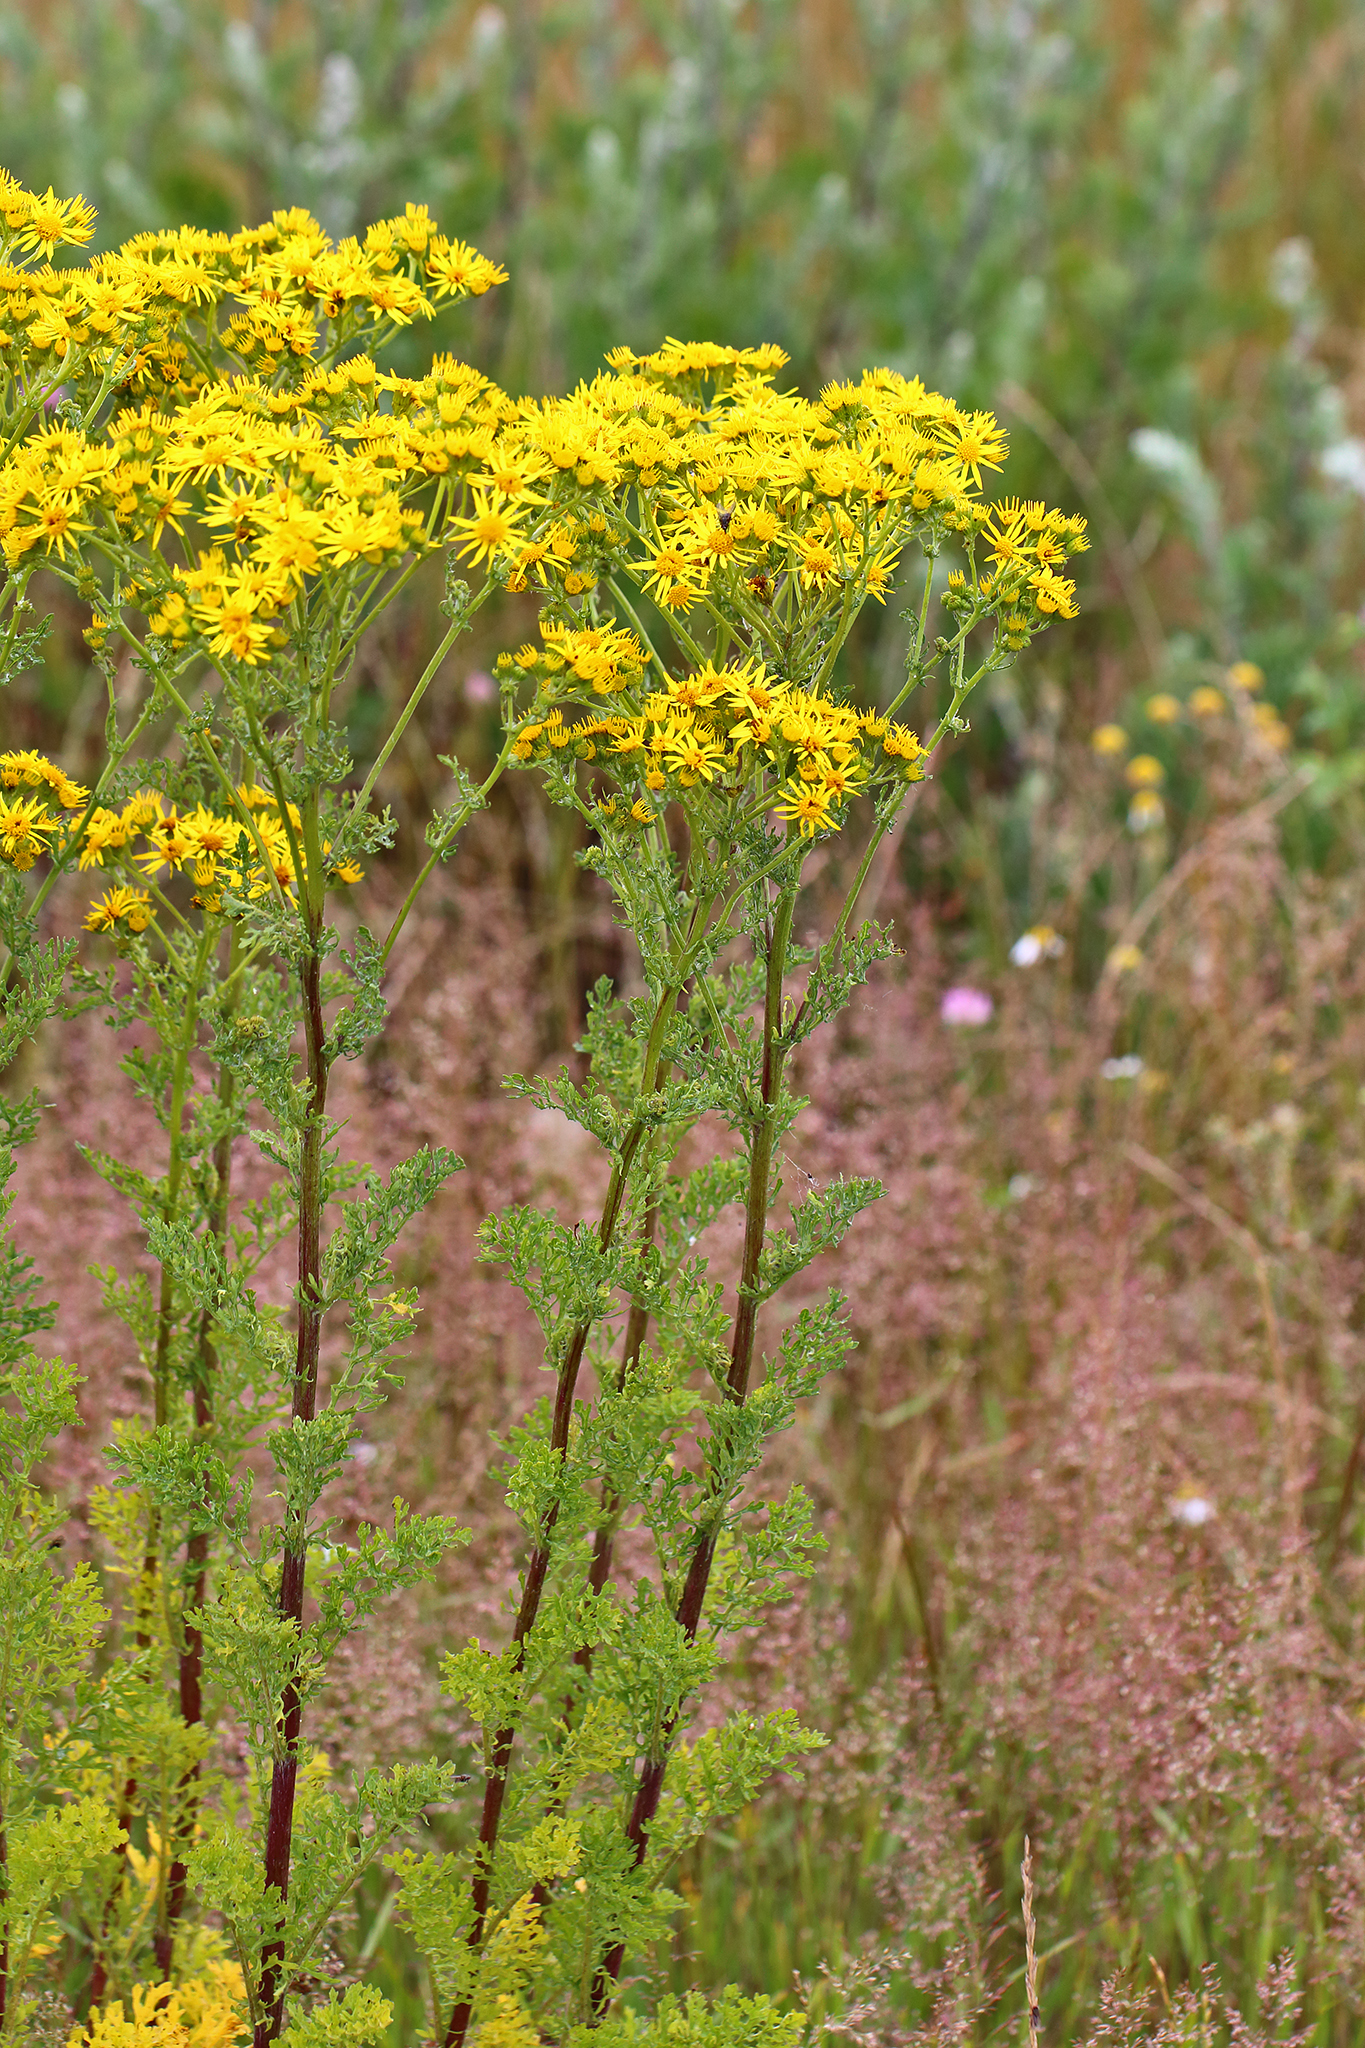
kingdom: Plantae
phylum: Tracheophyta
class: Magnoliopsida
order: Asterales
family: Asteraceae
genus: Jacobaea
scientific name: Jacobaea vulgaris
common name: Stinking willie
